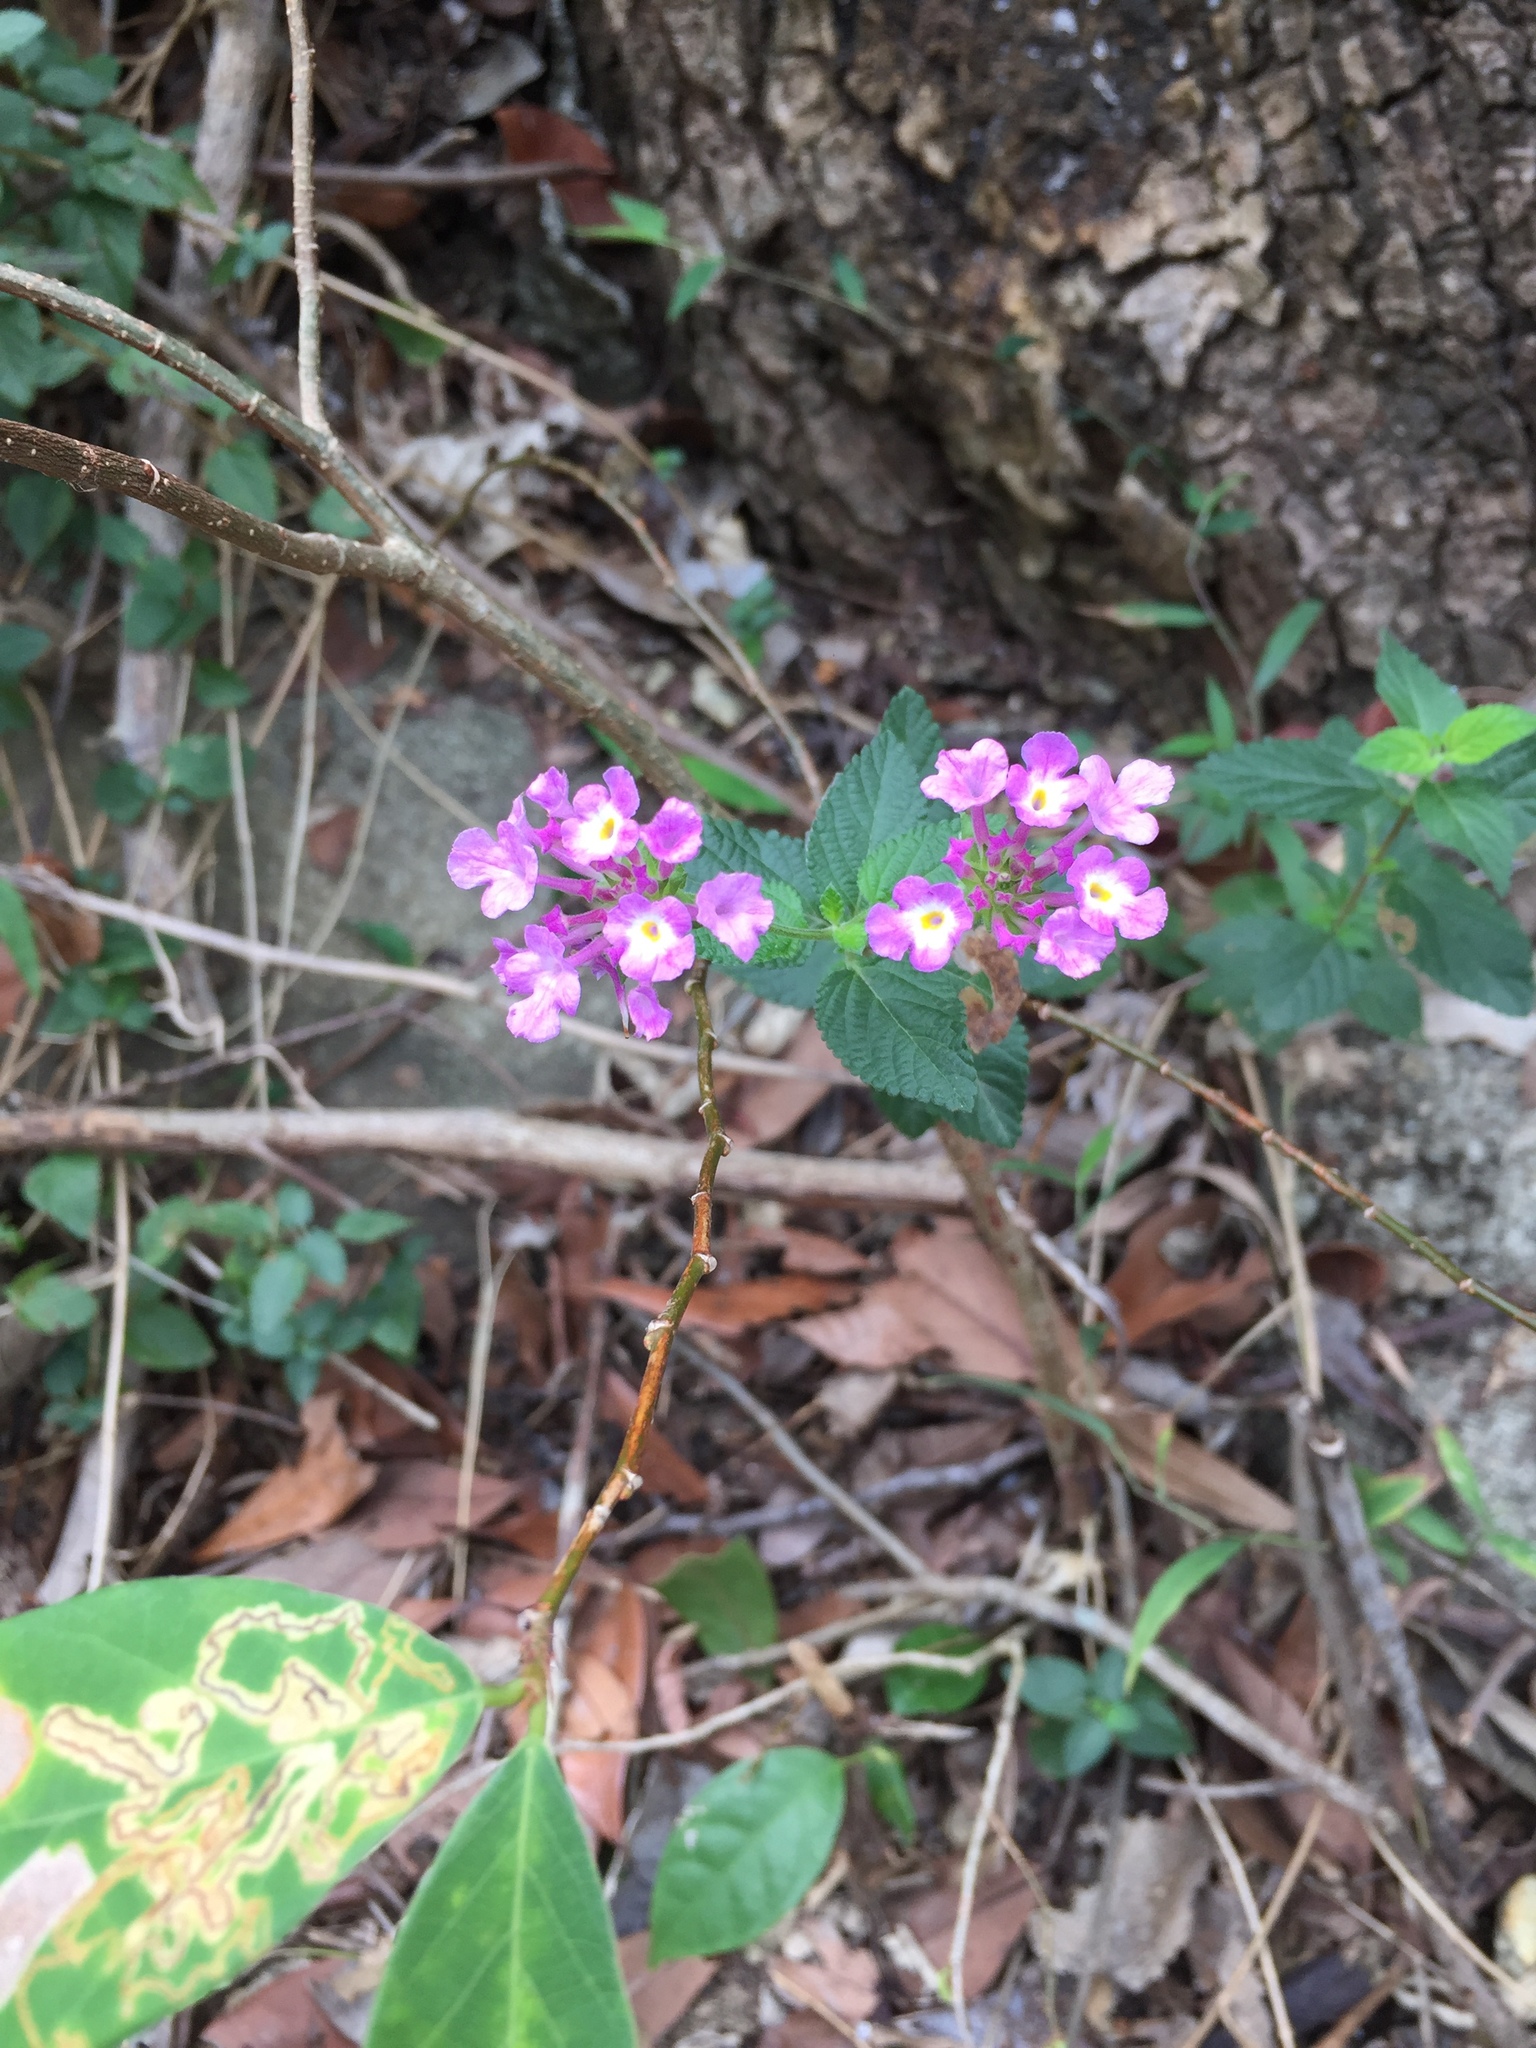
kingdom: Plantae
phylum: Tracheophyta
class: Magnoliopsida
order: Lamiales
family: Verbenaceae
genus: Lantana
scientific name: Lantana camara
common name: Lantana
